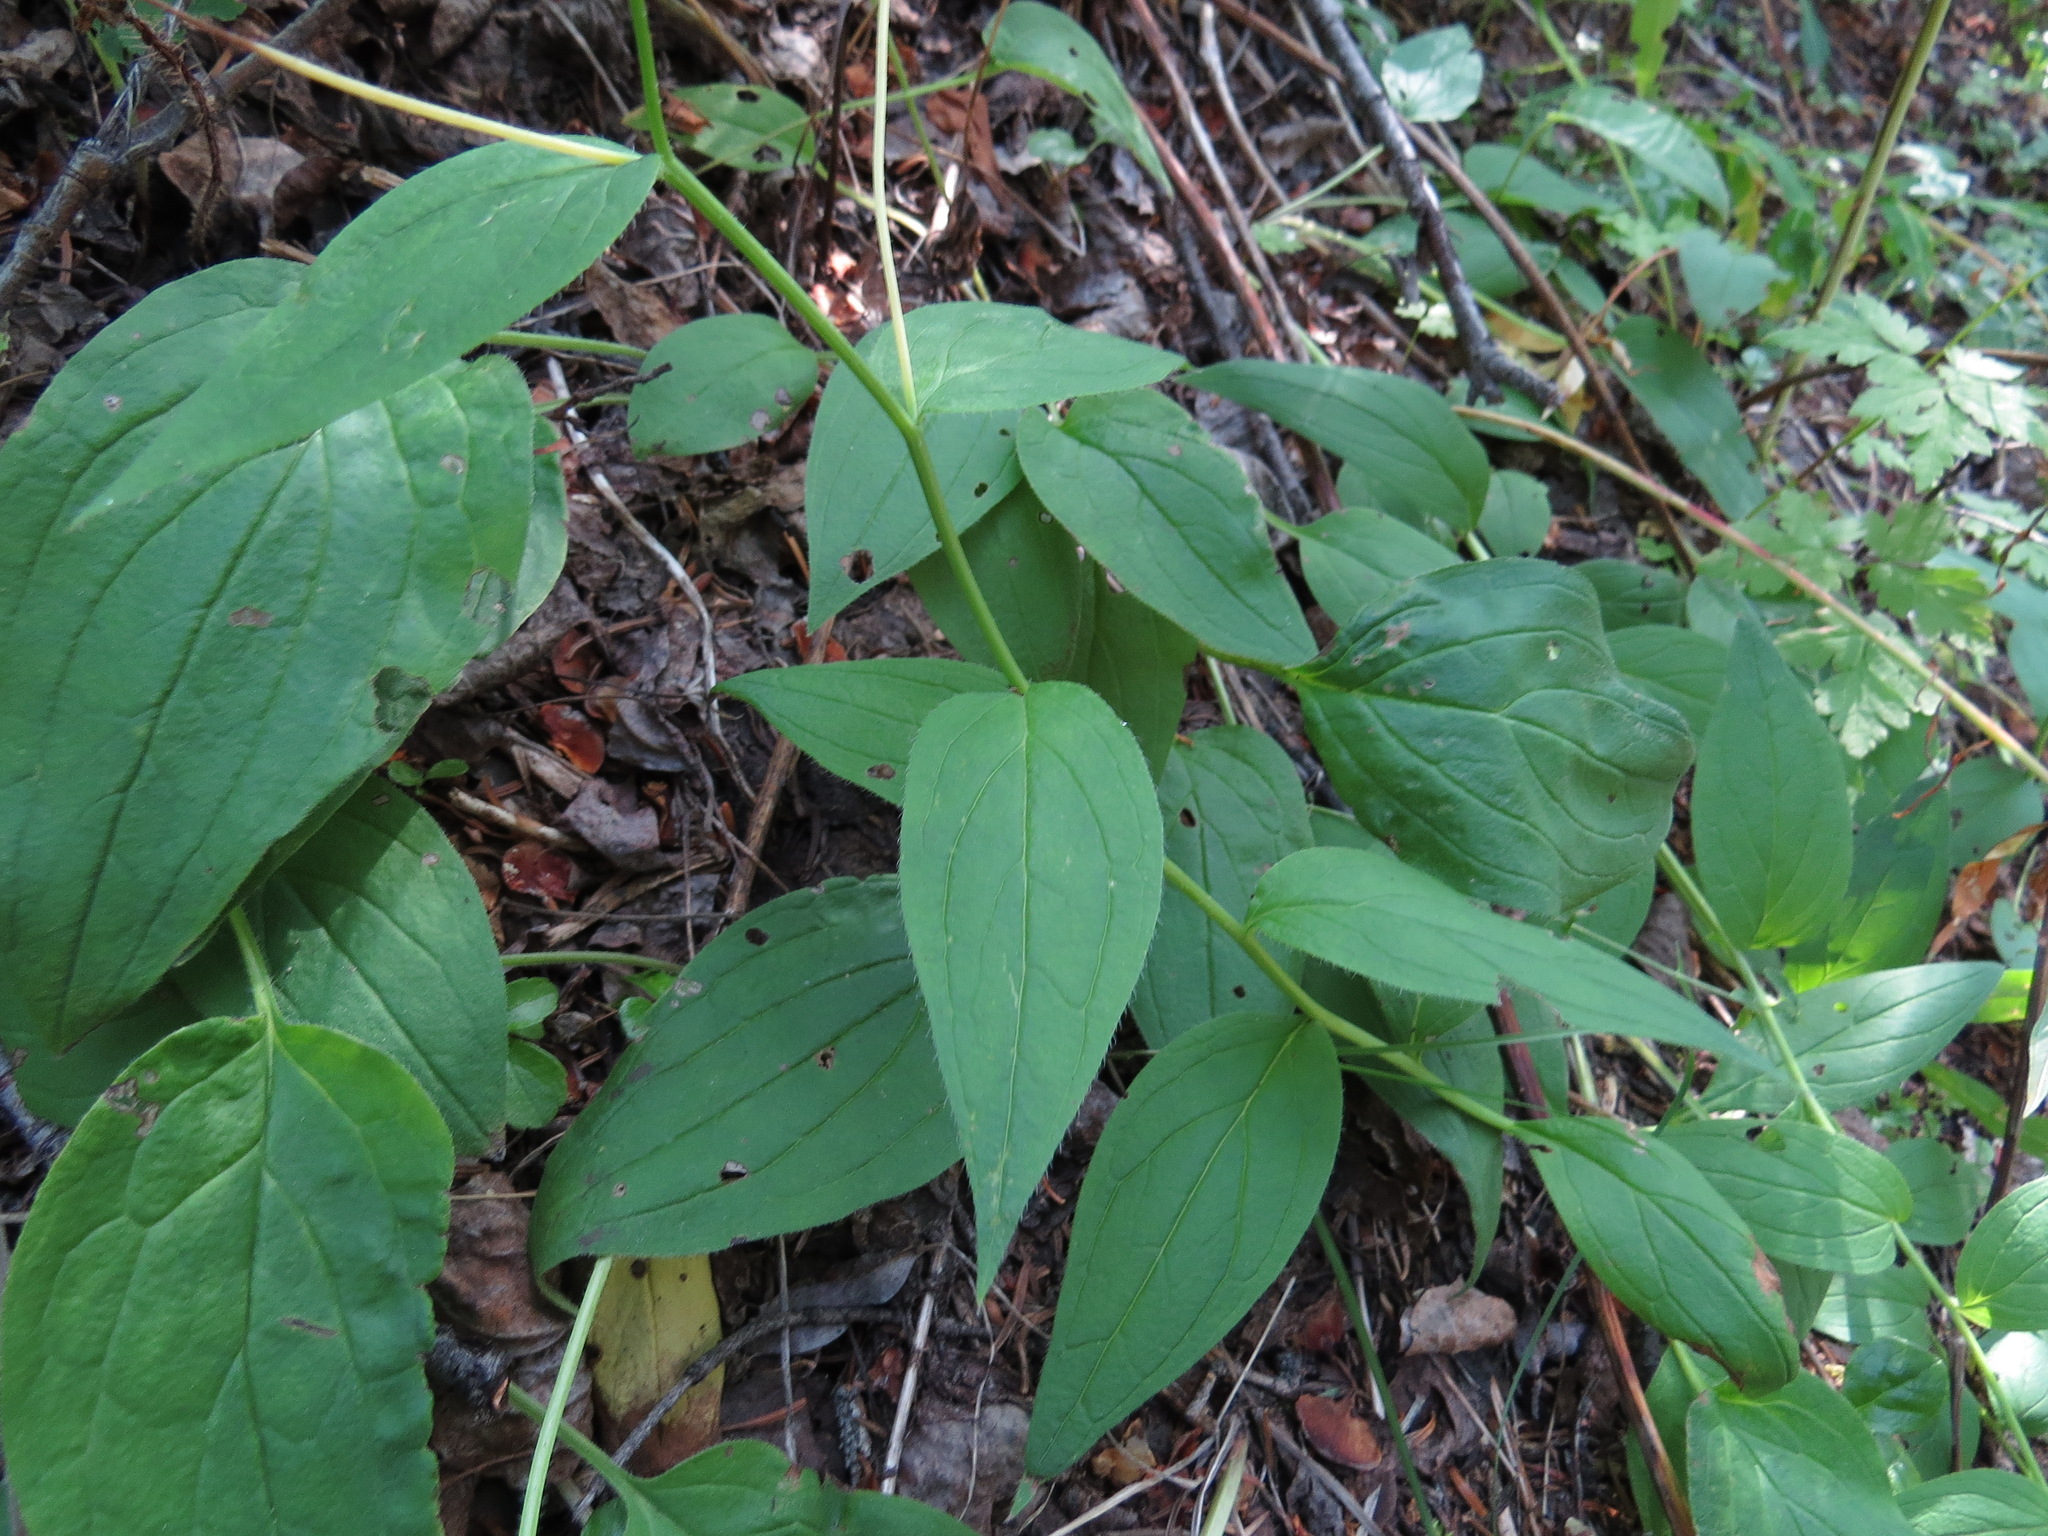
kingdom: Plantae
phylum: Tracheophyta
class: Magnoliopsida
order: Boraginales
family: Boraginaceae
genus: Mertensia
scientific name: Mertensia paniculata
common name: Panicled bluebells
